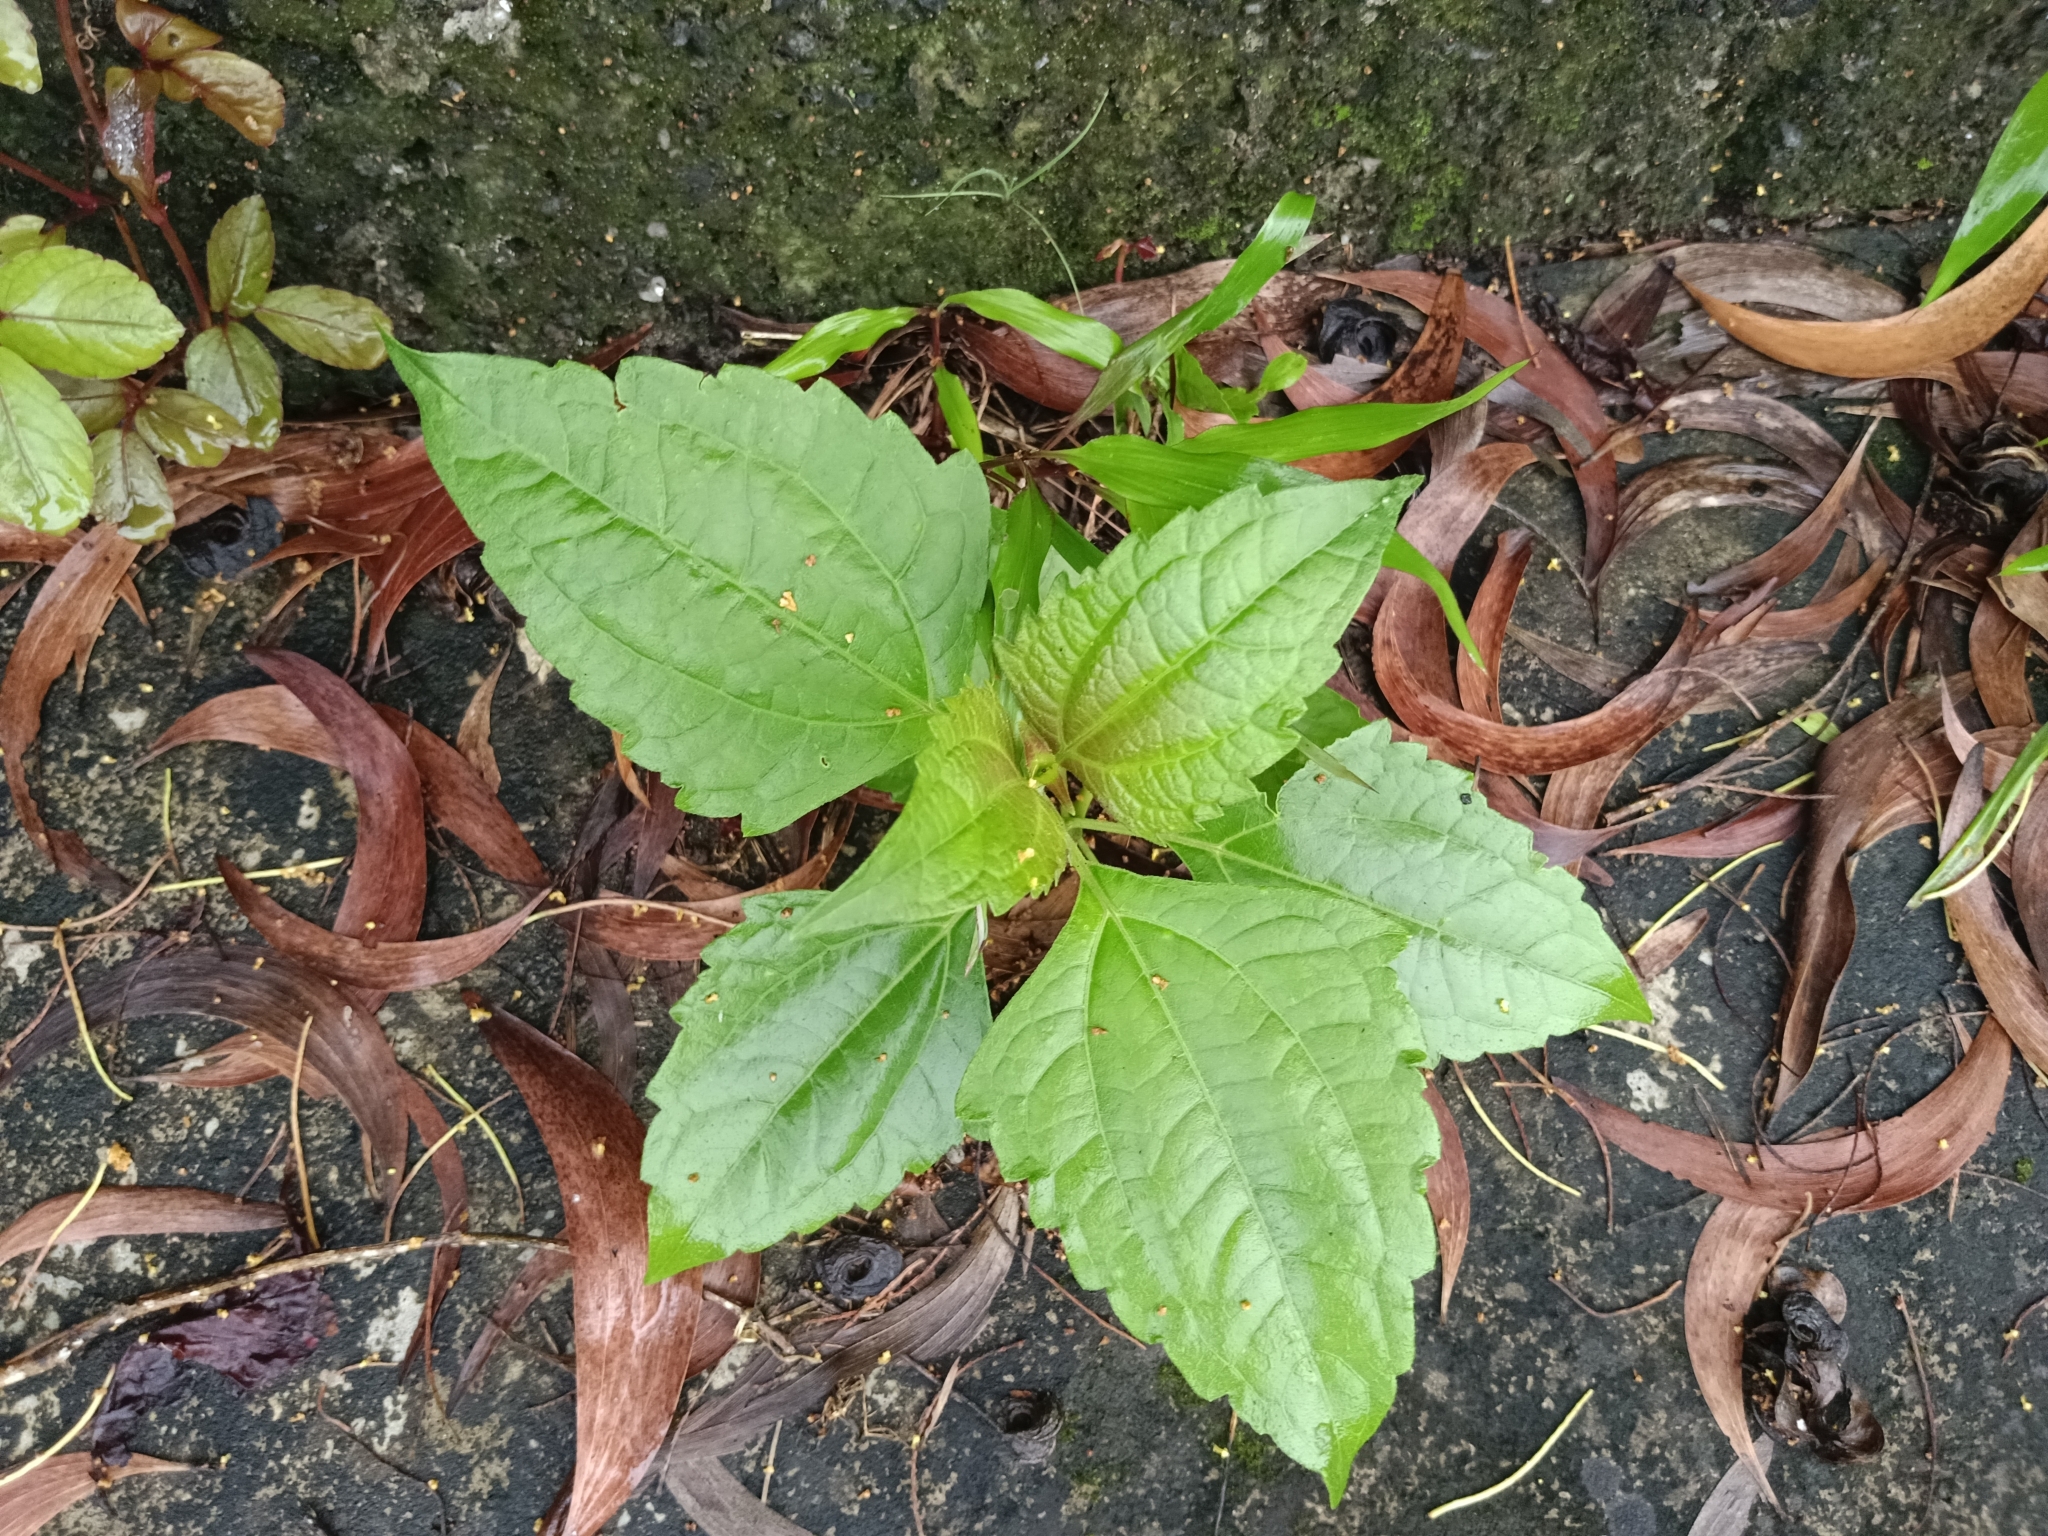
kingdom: Plantae
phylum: Tracheophyta
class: Magnoliopsida
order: Asterales
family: Asteraceae
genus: Chromolaena
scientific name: Chromolaena odorata
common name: Siamweed
